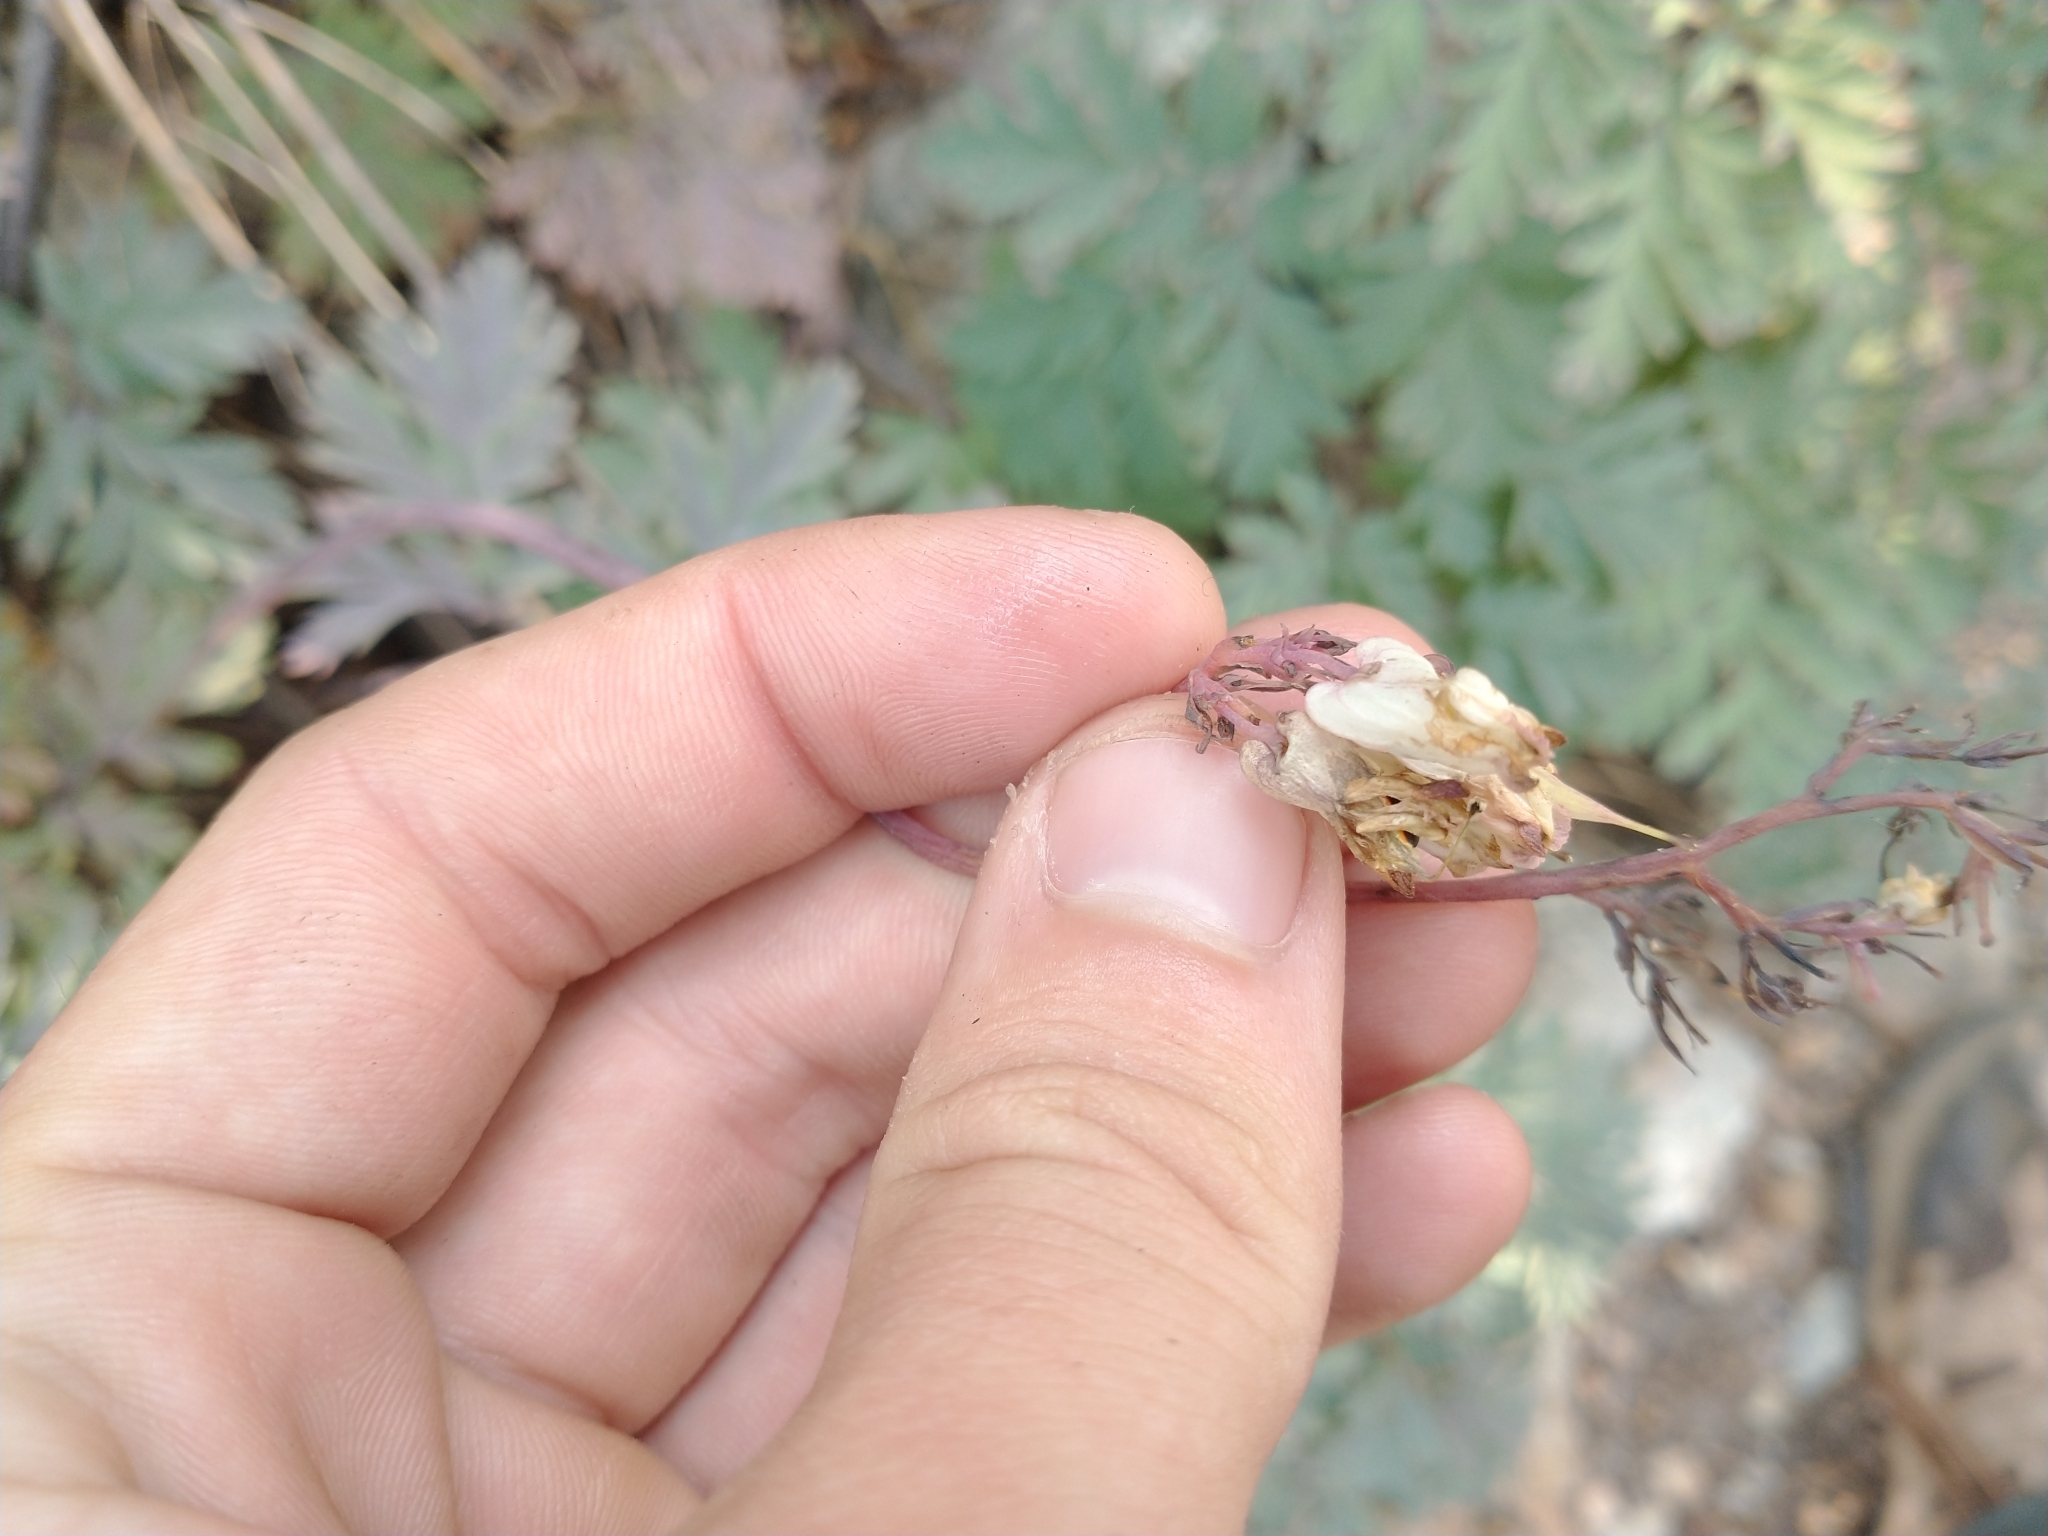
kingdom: Plantae
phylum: Tracheophyta
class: Magnoliopsida
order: Ranunculales
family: Papaveraceae
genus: Dicentra
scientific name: Dicentra formosa
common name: Bleeding-heart
